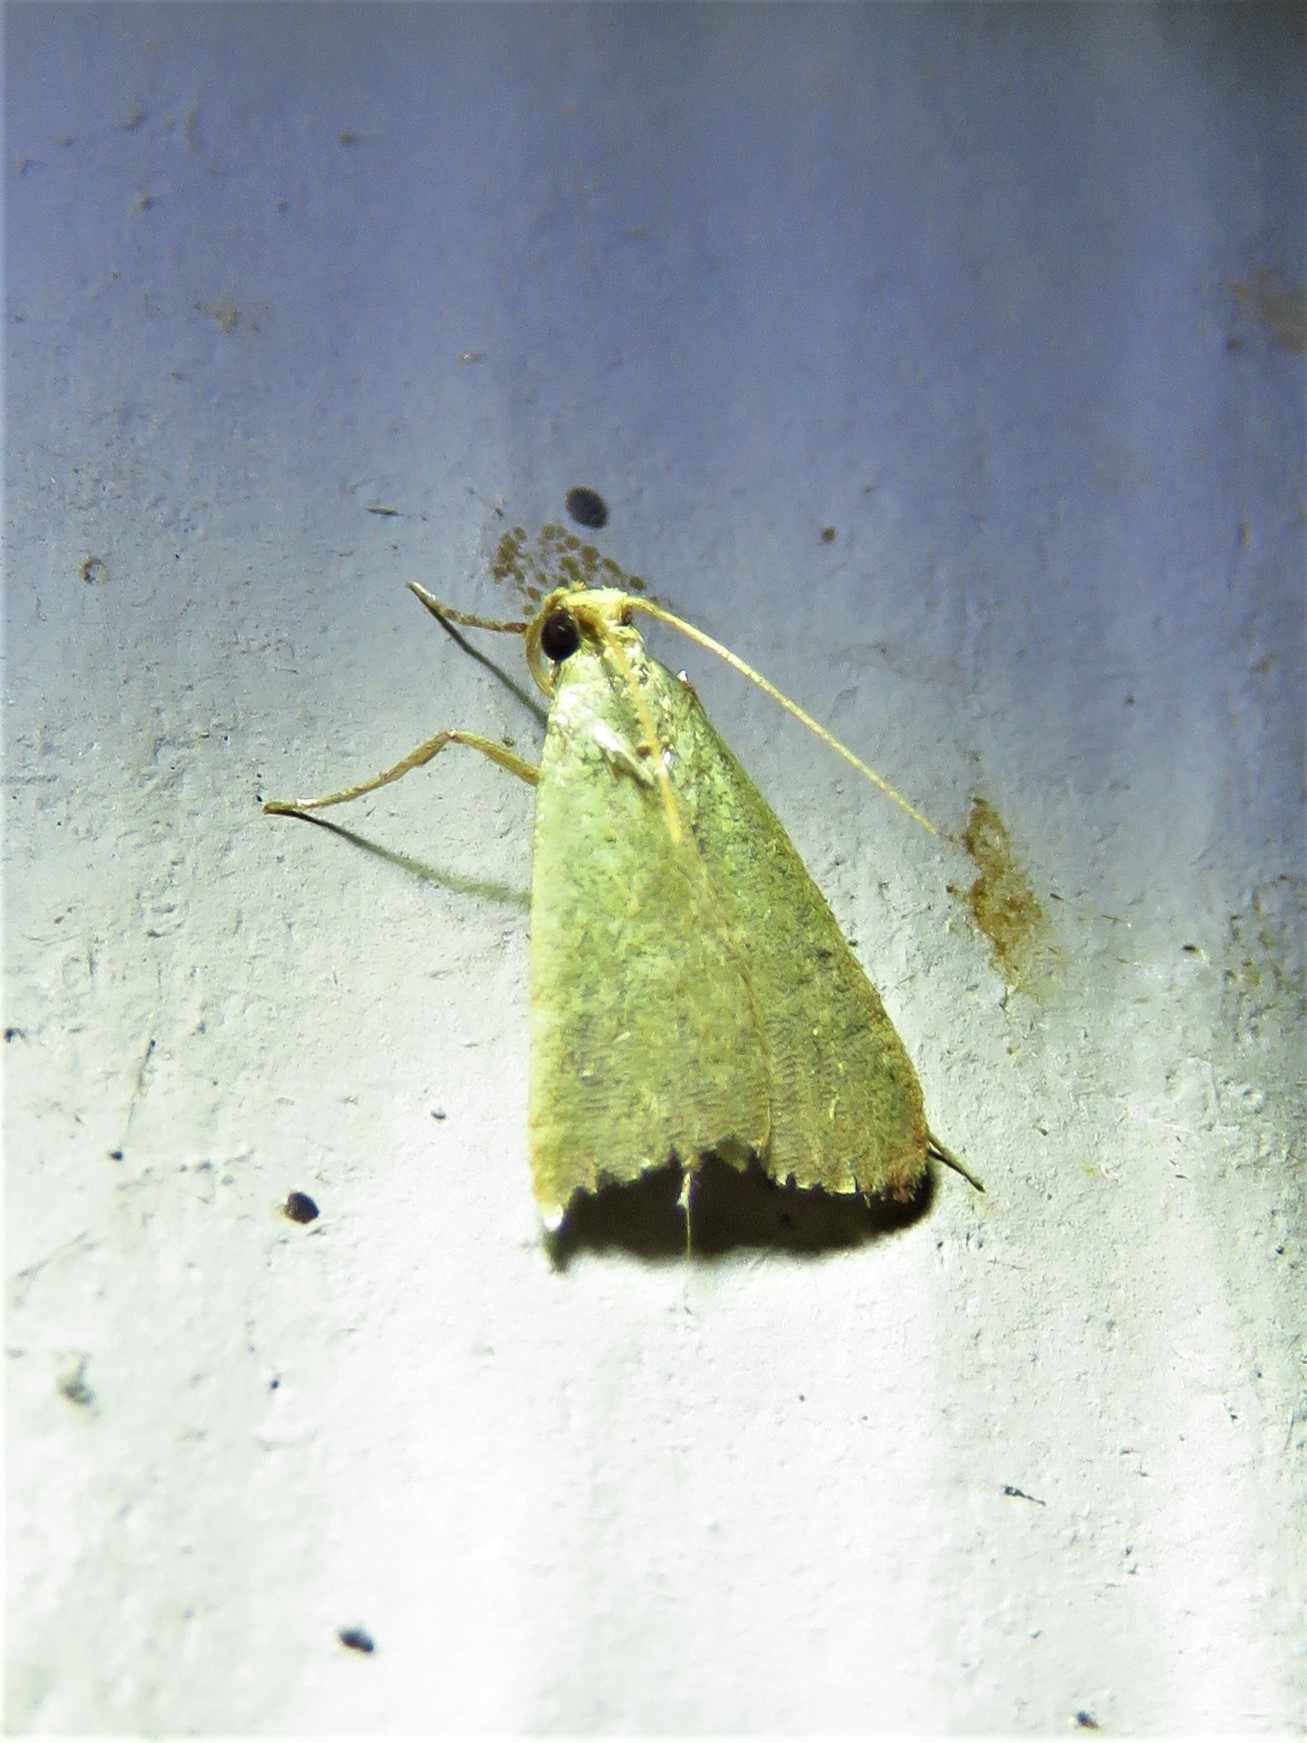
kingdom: Animalia
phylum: Arthropoda
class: Insecta
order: Lepidoptera
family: Pyralidae
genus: Arta
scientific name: Arta olivalis
